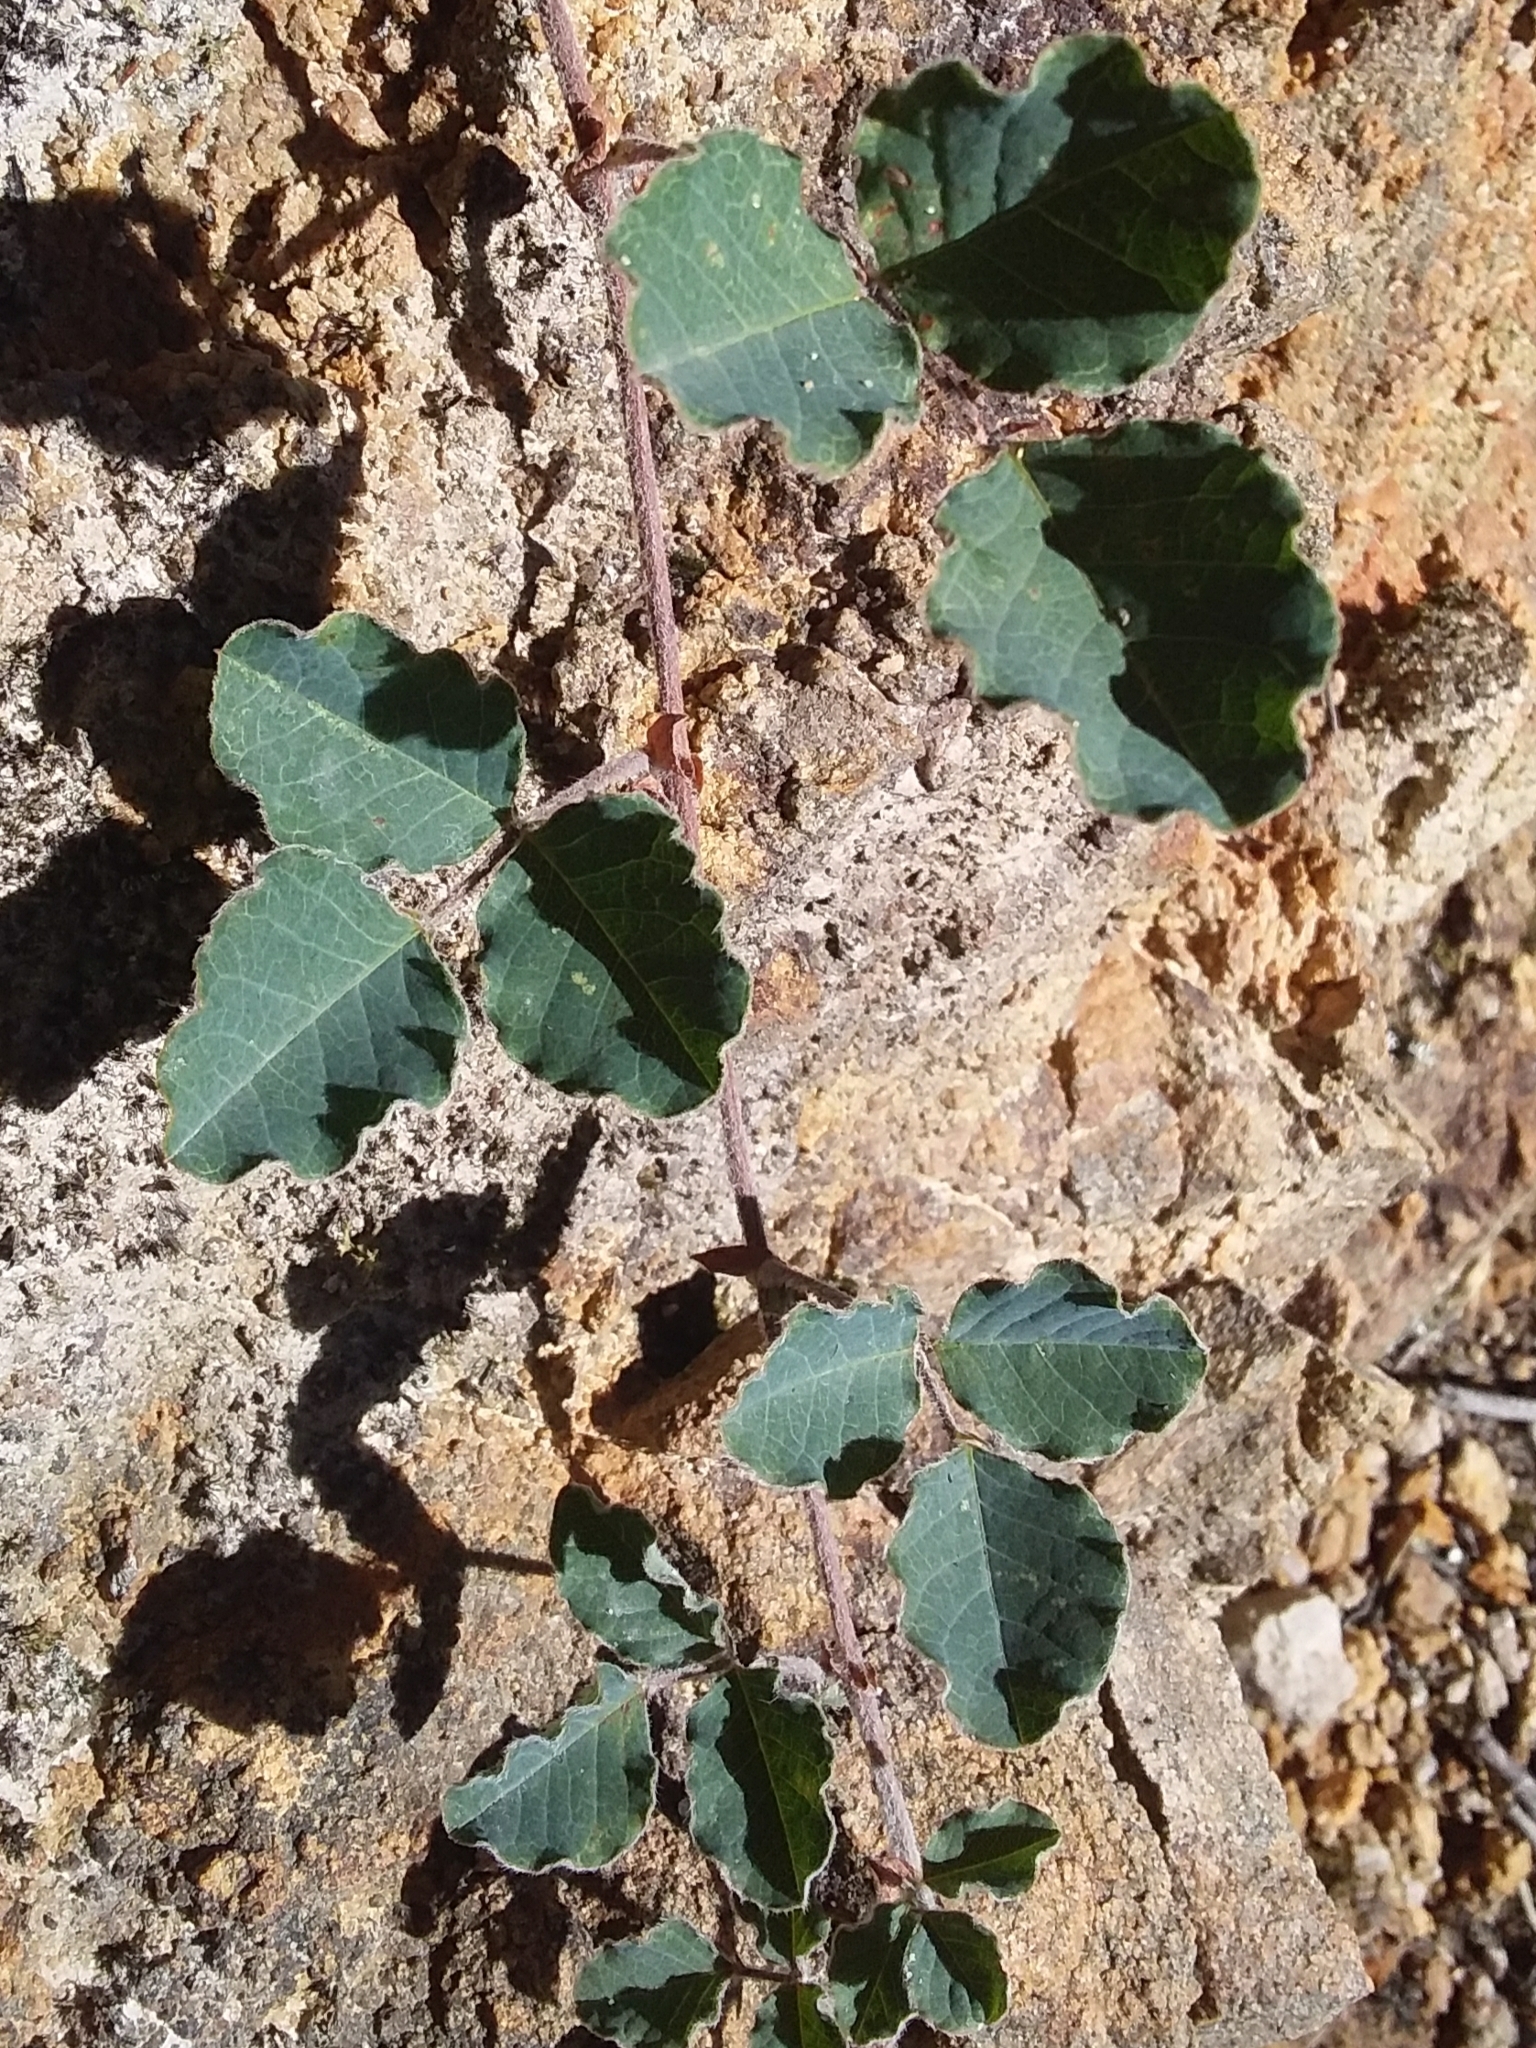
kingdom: Plantae
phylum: Tracheophyta
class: Magnoliopsida
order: Fabales
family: Fabaceae
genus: Kennedia
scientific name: Kennedia prostrata
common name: Running-postman
